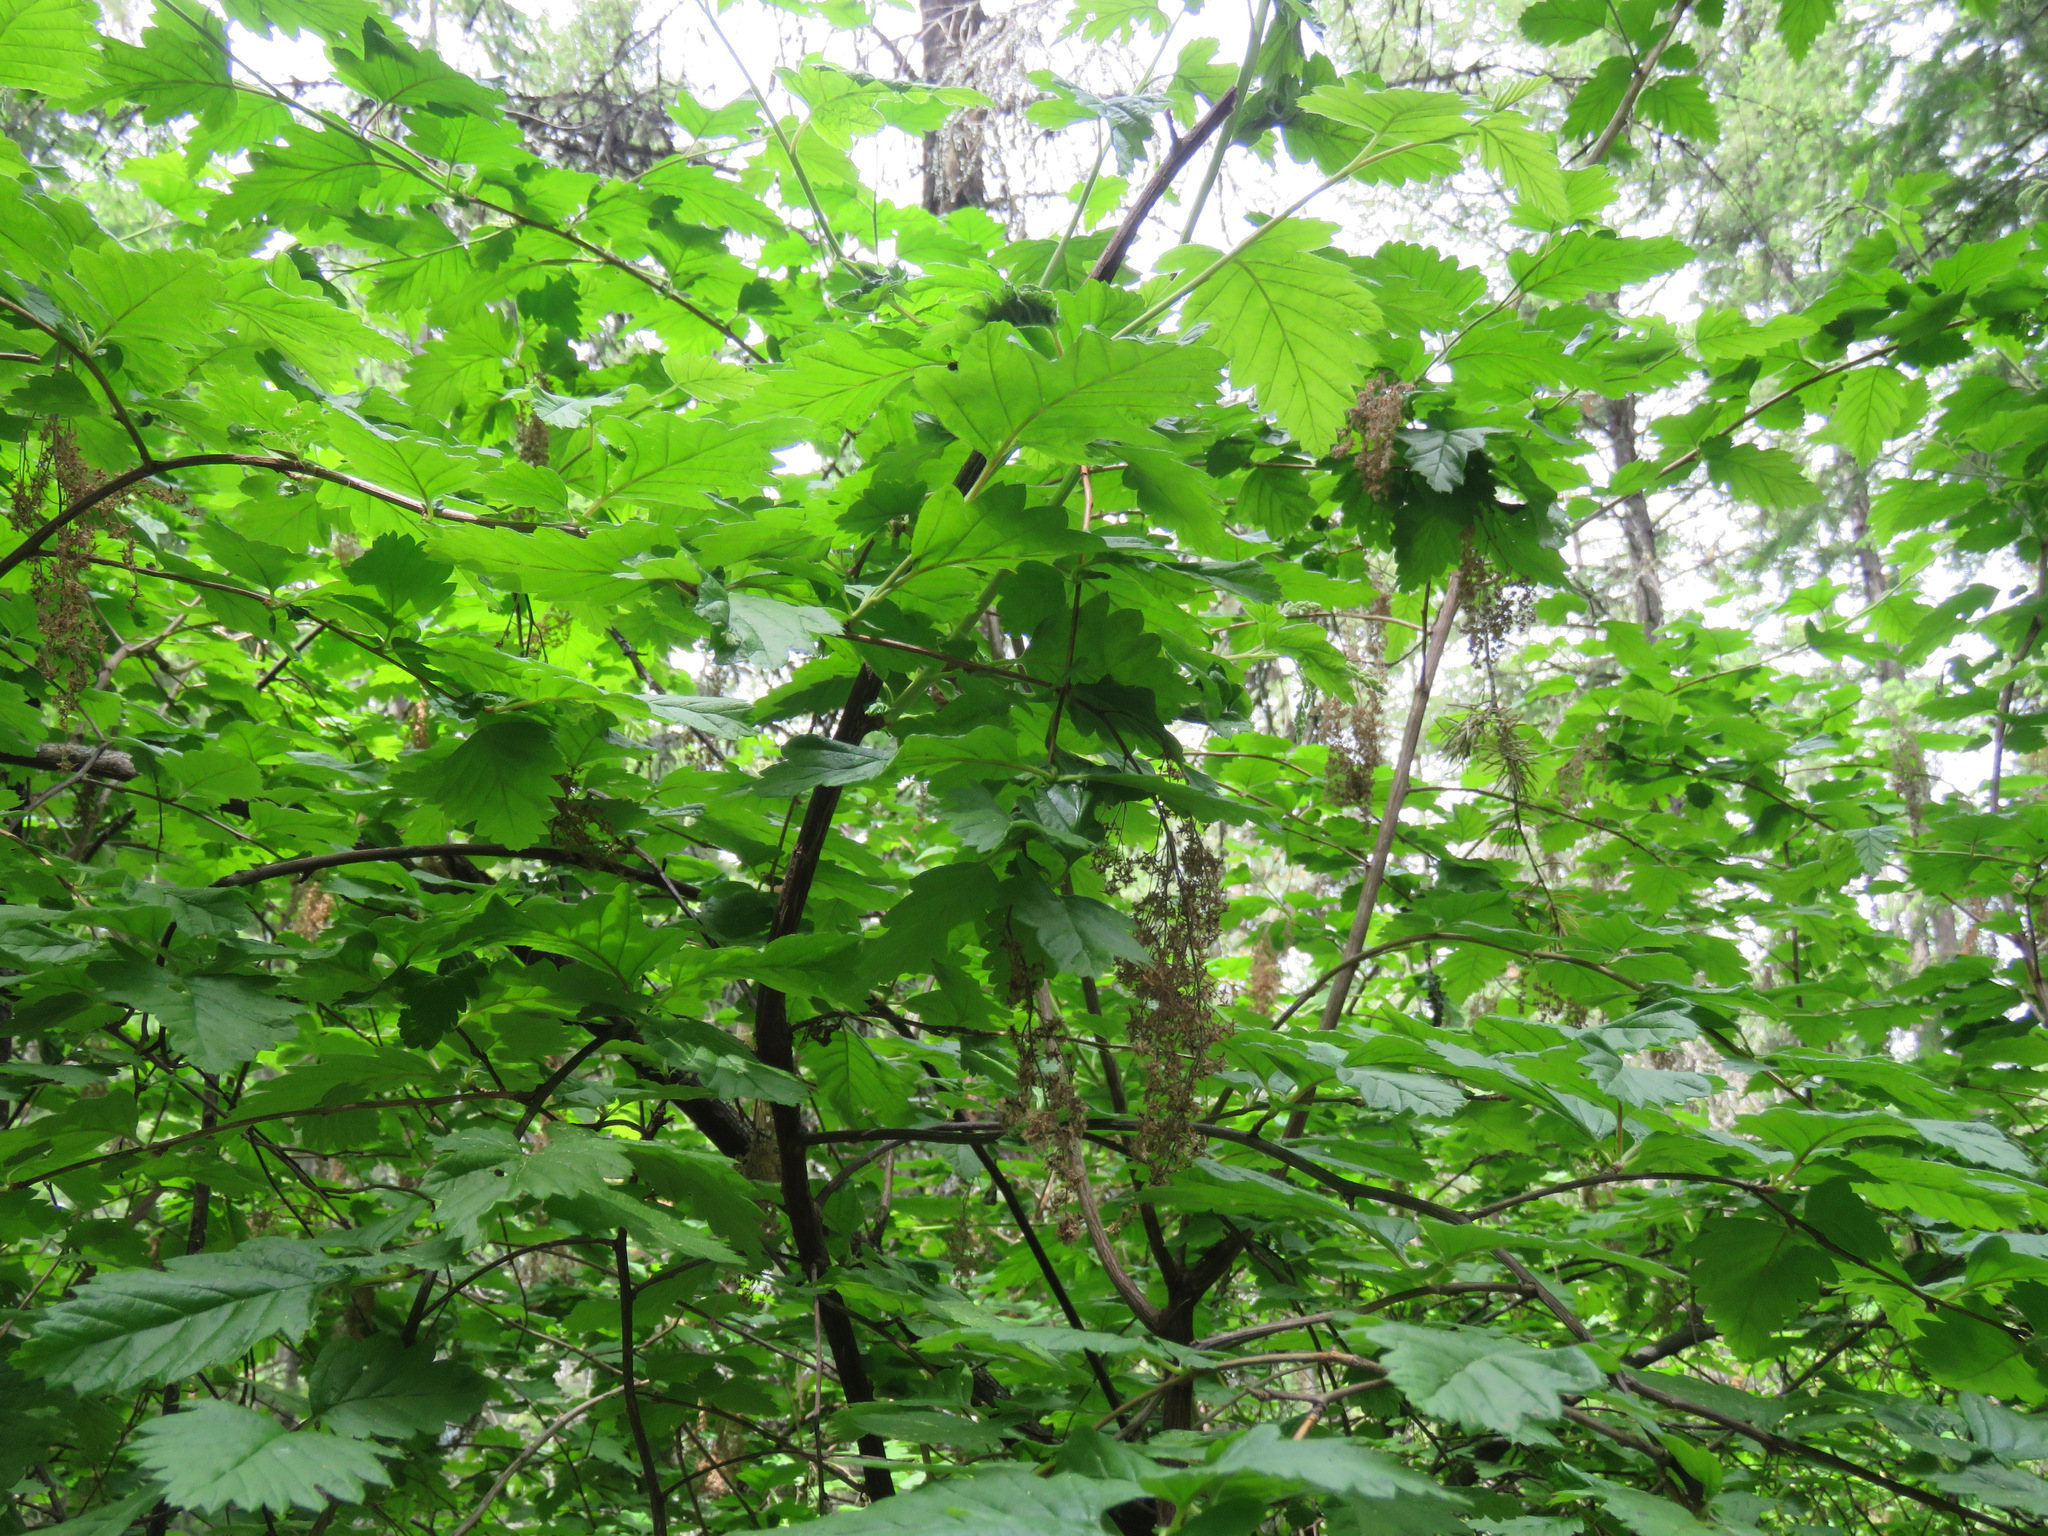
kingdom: Plantae
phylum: Tracheophyta
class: Magnoliopsida
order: Rosales
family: Rosaceae
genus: Holodiscus
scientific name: Holodiscus discolor
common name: Oceanspray
